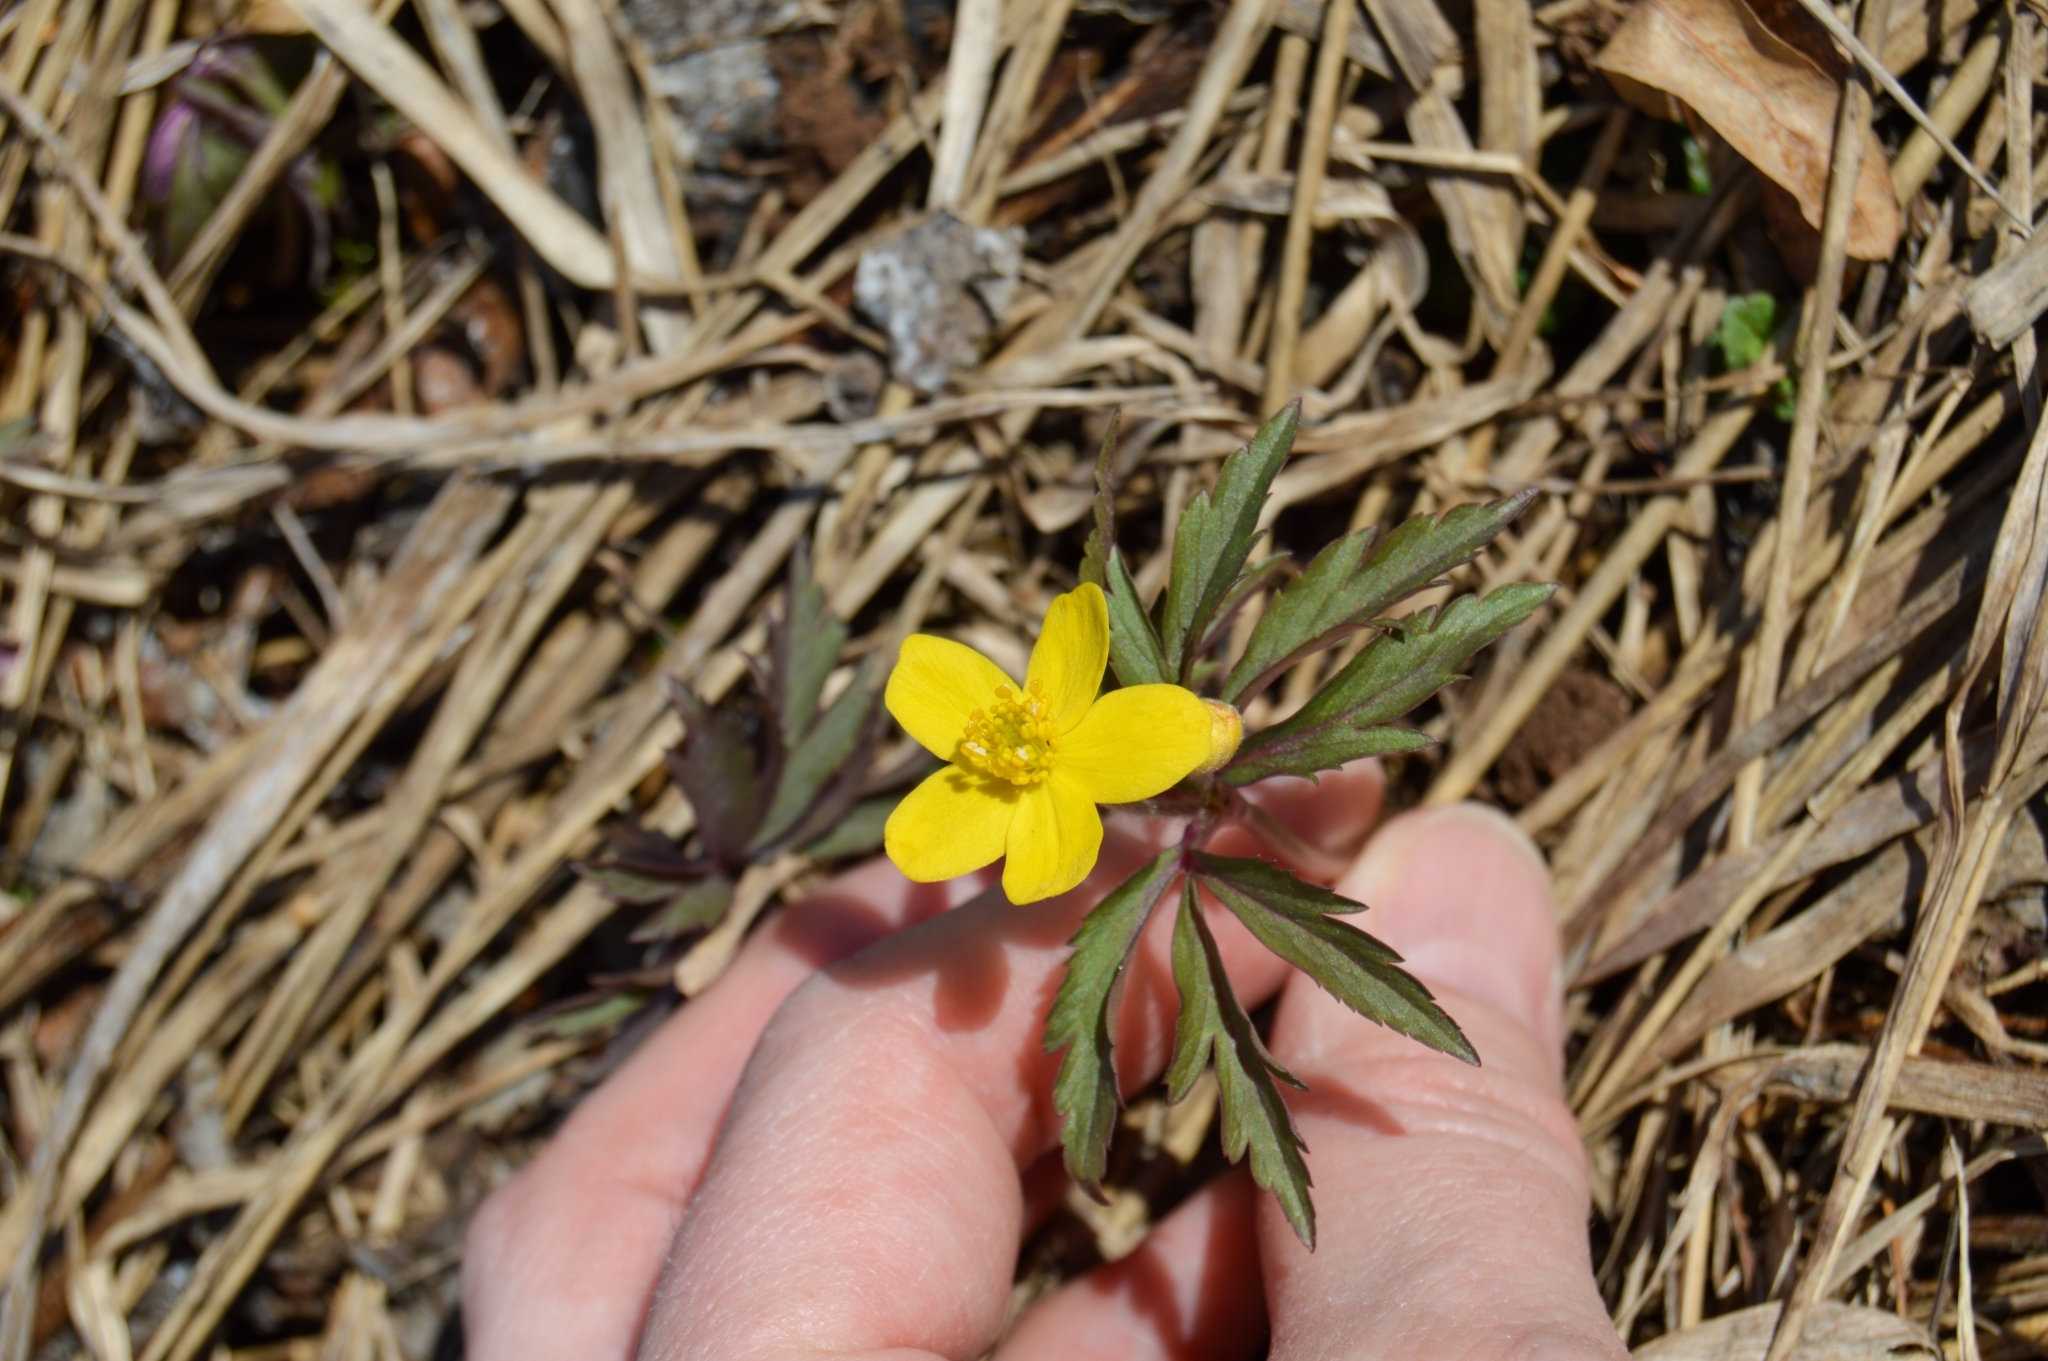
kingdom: Plantae
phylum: Tracheophyta
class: Magnoliopsida
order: Ranunculales
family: Ranunculaceae
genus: Anemone
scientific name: Anemone ranunculoides
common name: Yellow anemone
